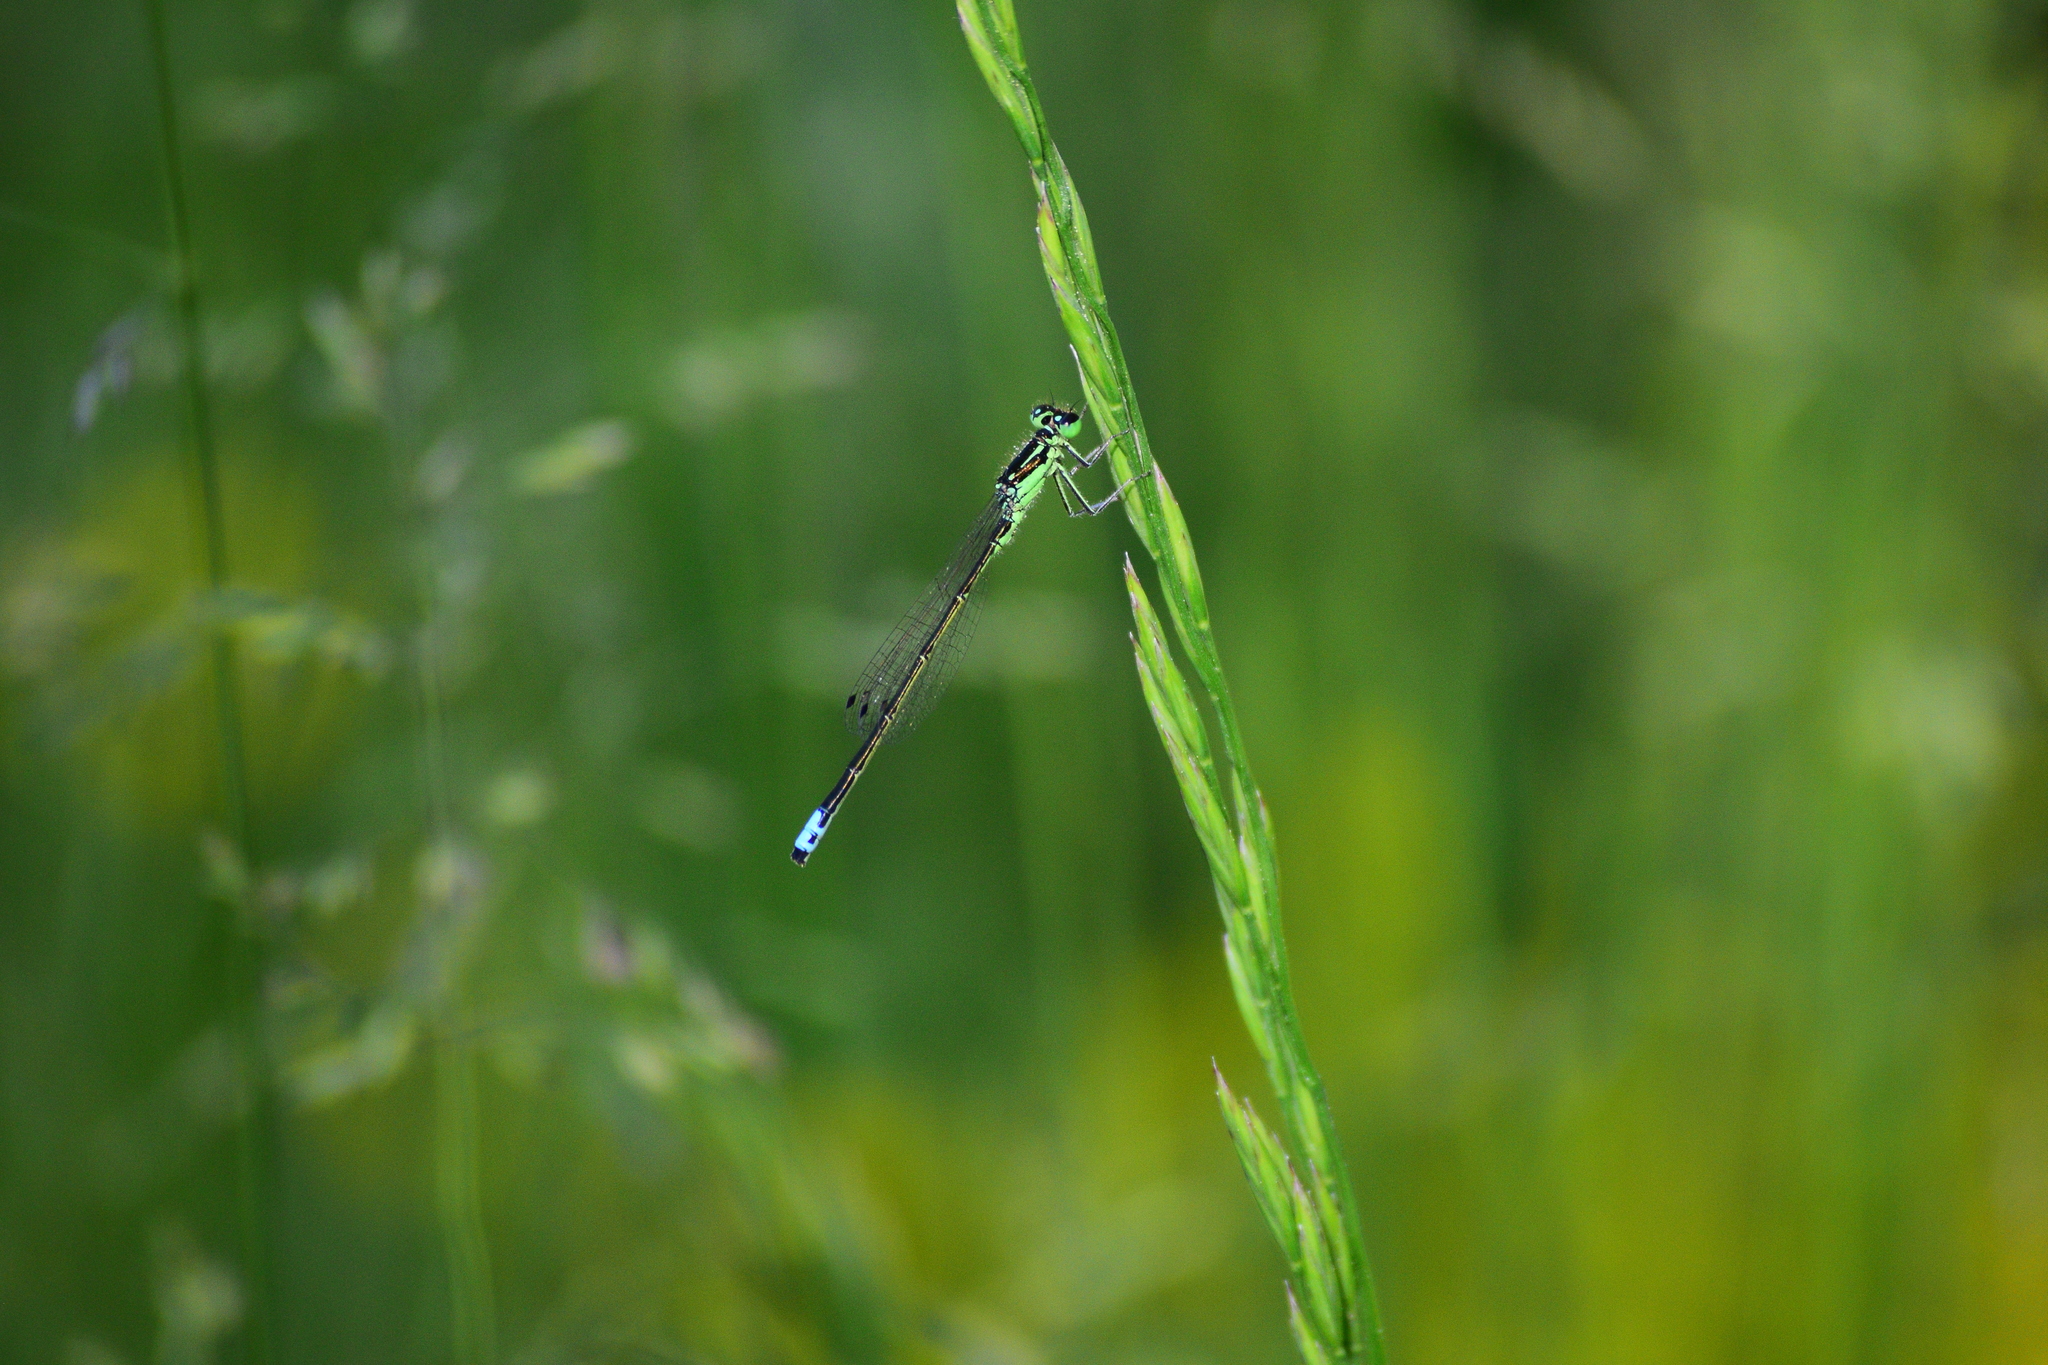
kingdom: Animalia
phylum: Arthropoda
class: Insecta
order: Odonata
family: Coenagrionidae
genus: Ischnura
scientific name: Ischnura verticalis
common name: Eastern forktail
